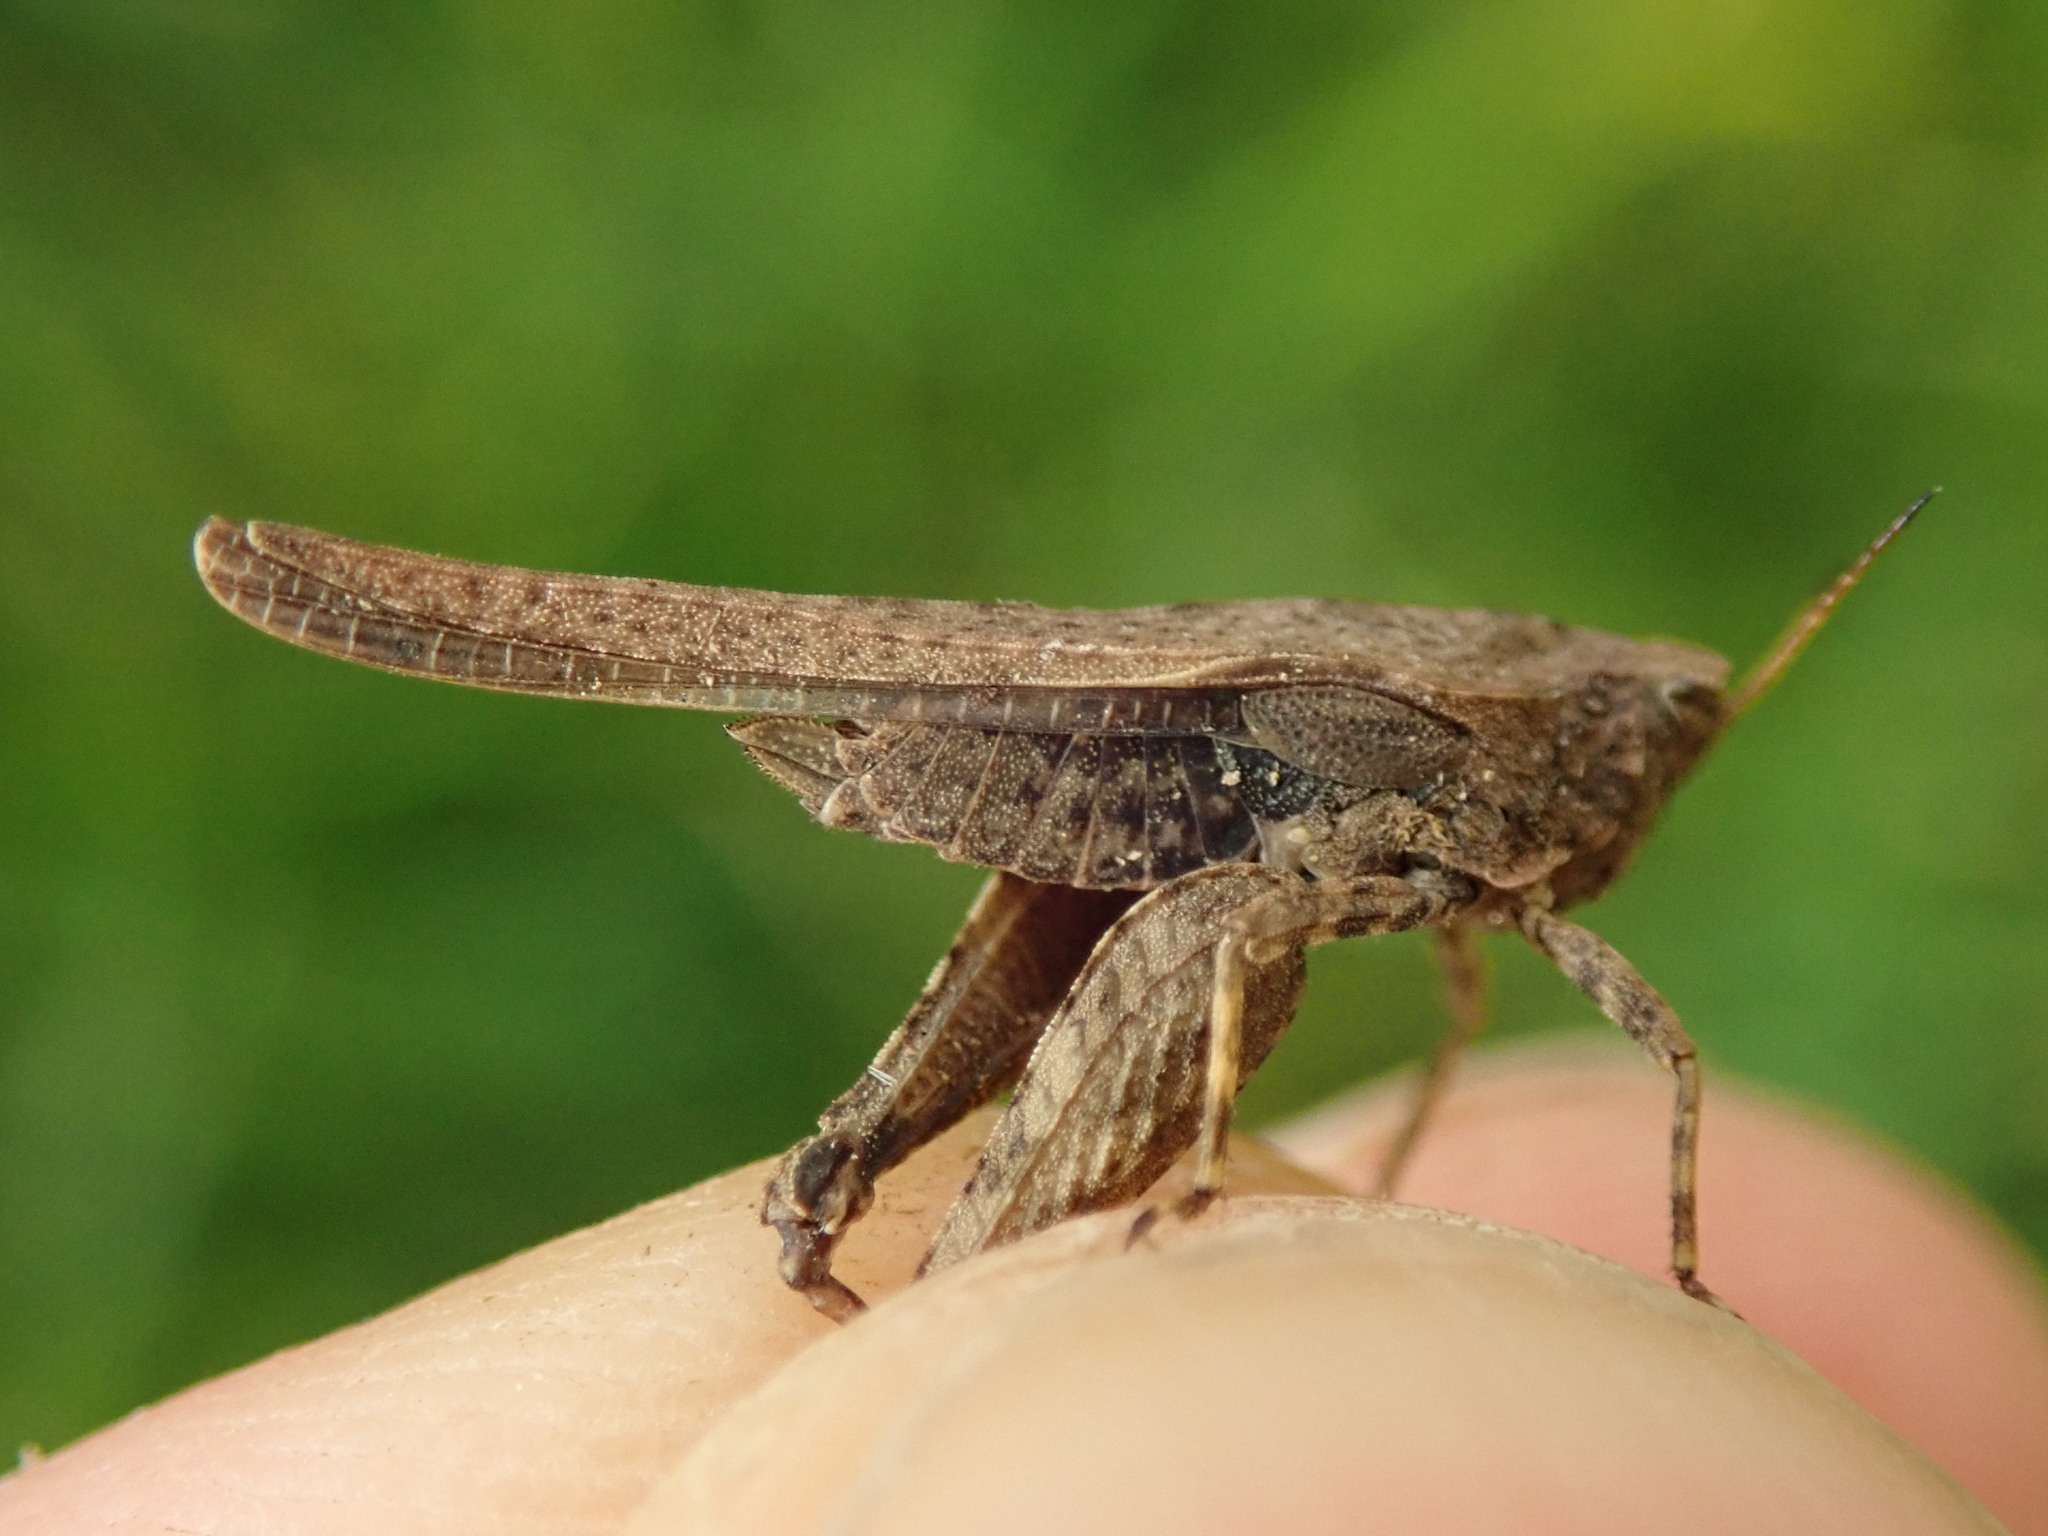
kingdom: Animalia
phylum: Arthropoda
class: Insecta
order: Orthoptera
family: Tetrigidae
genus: Tetrix
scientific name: Tetrix subulata
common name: Slender ground-hopper
